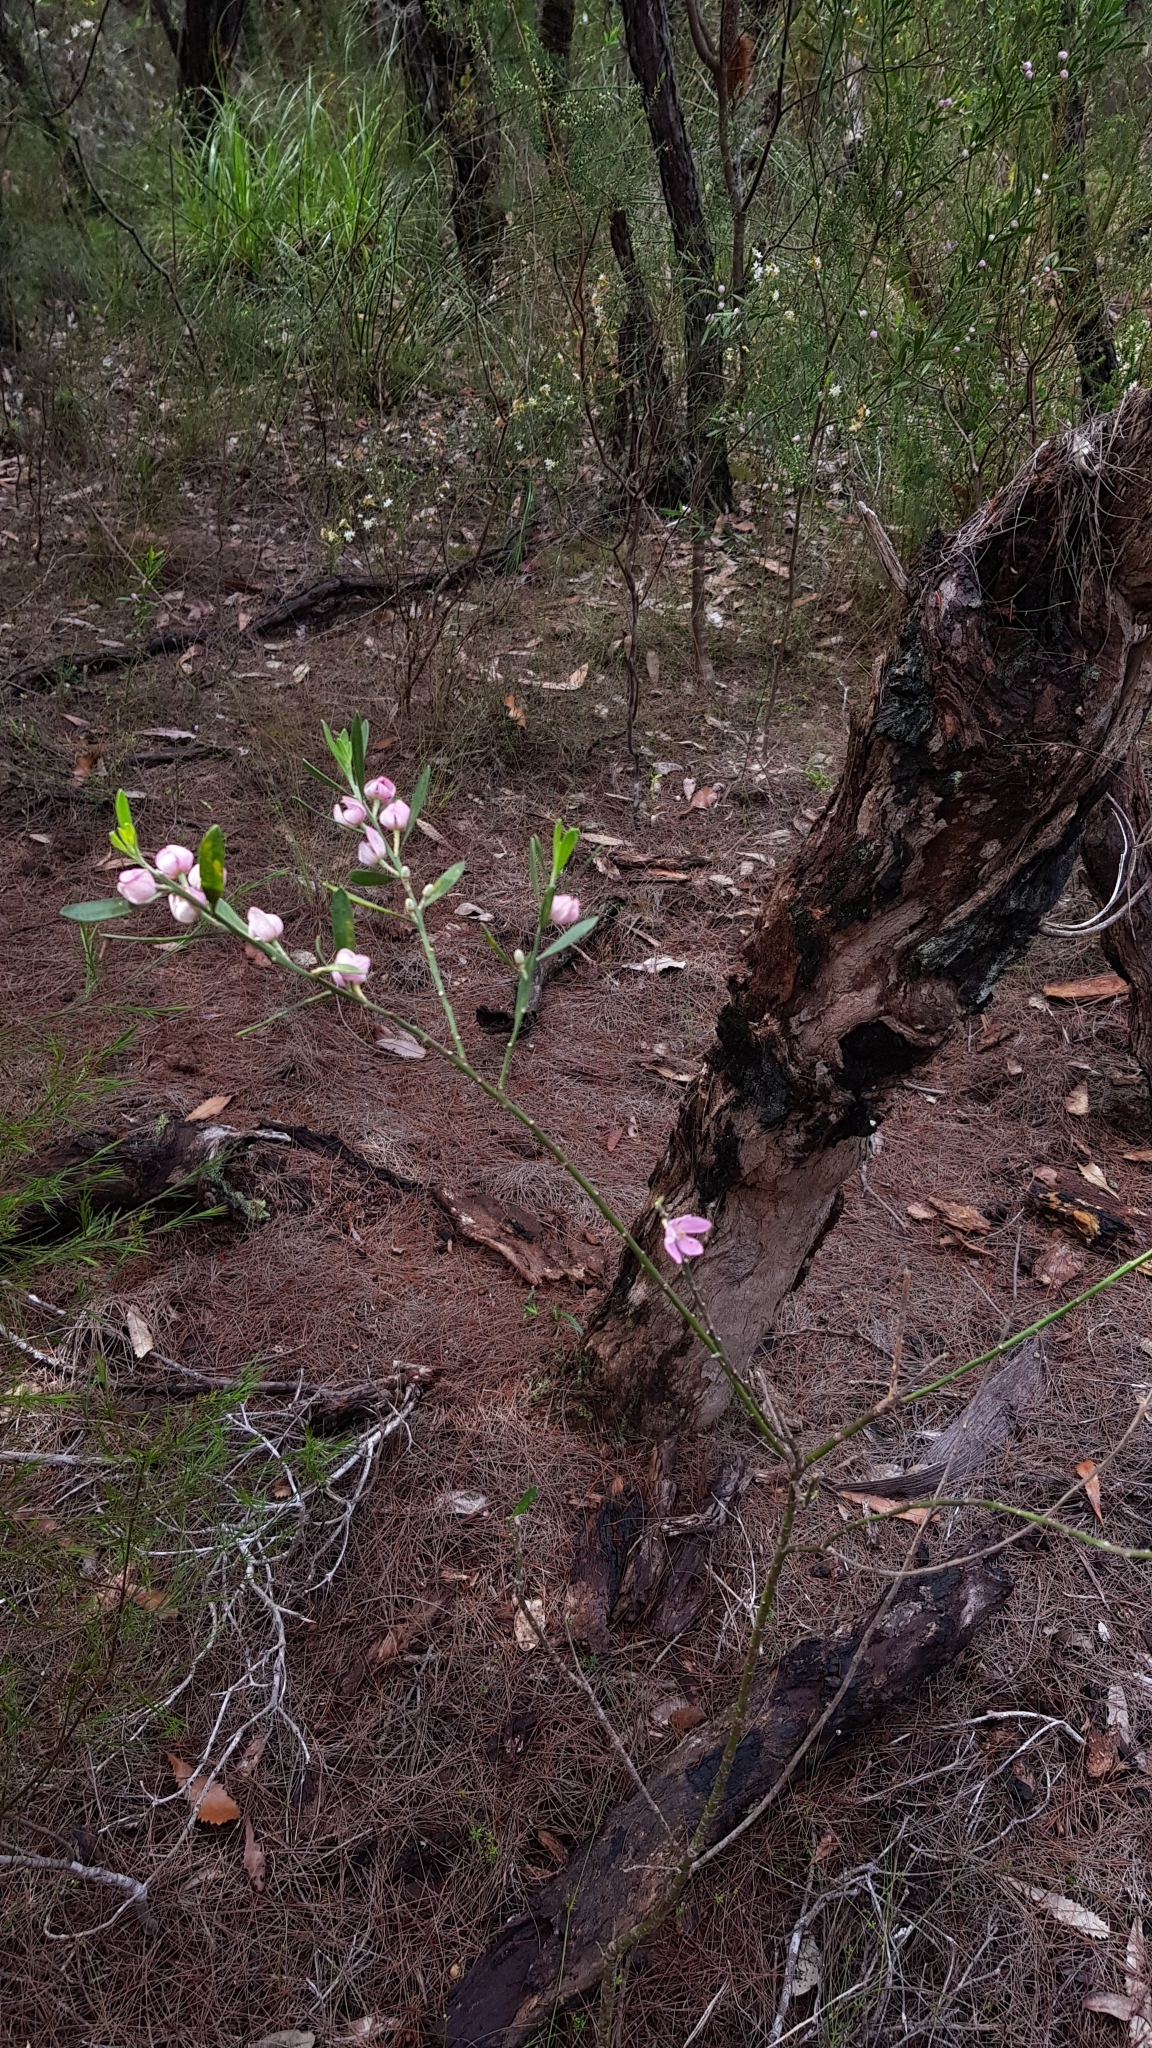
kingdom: Plantae
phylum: Tracheophyta
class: Magnoliopsida
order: Sapindales
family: Rutaceae
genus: Eriostemon
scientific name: Eriostemon australasius
